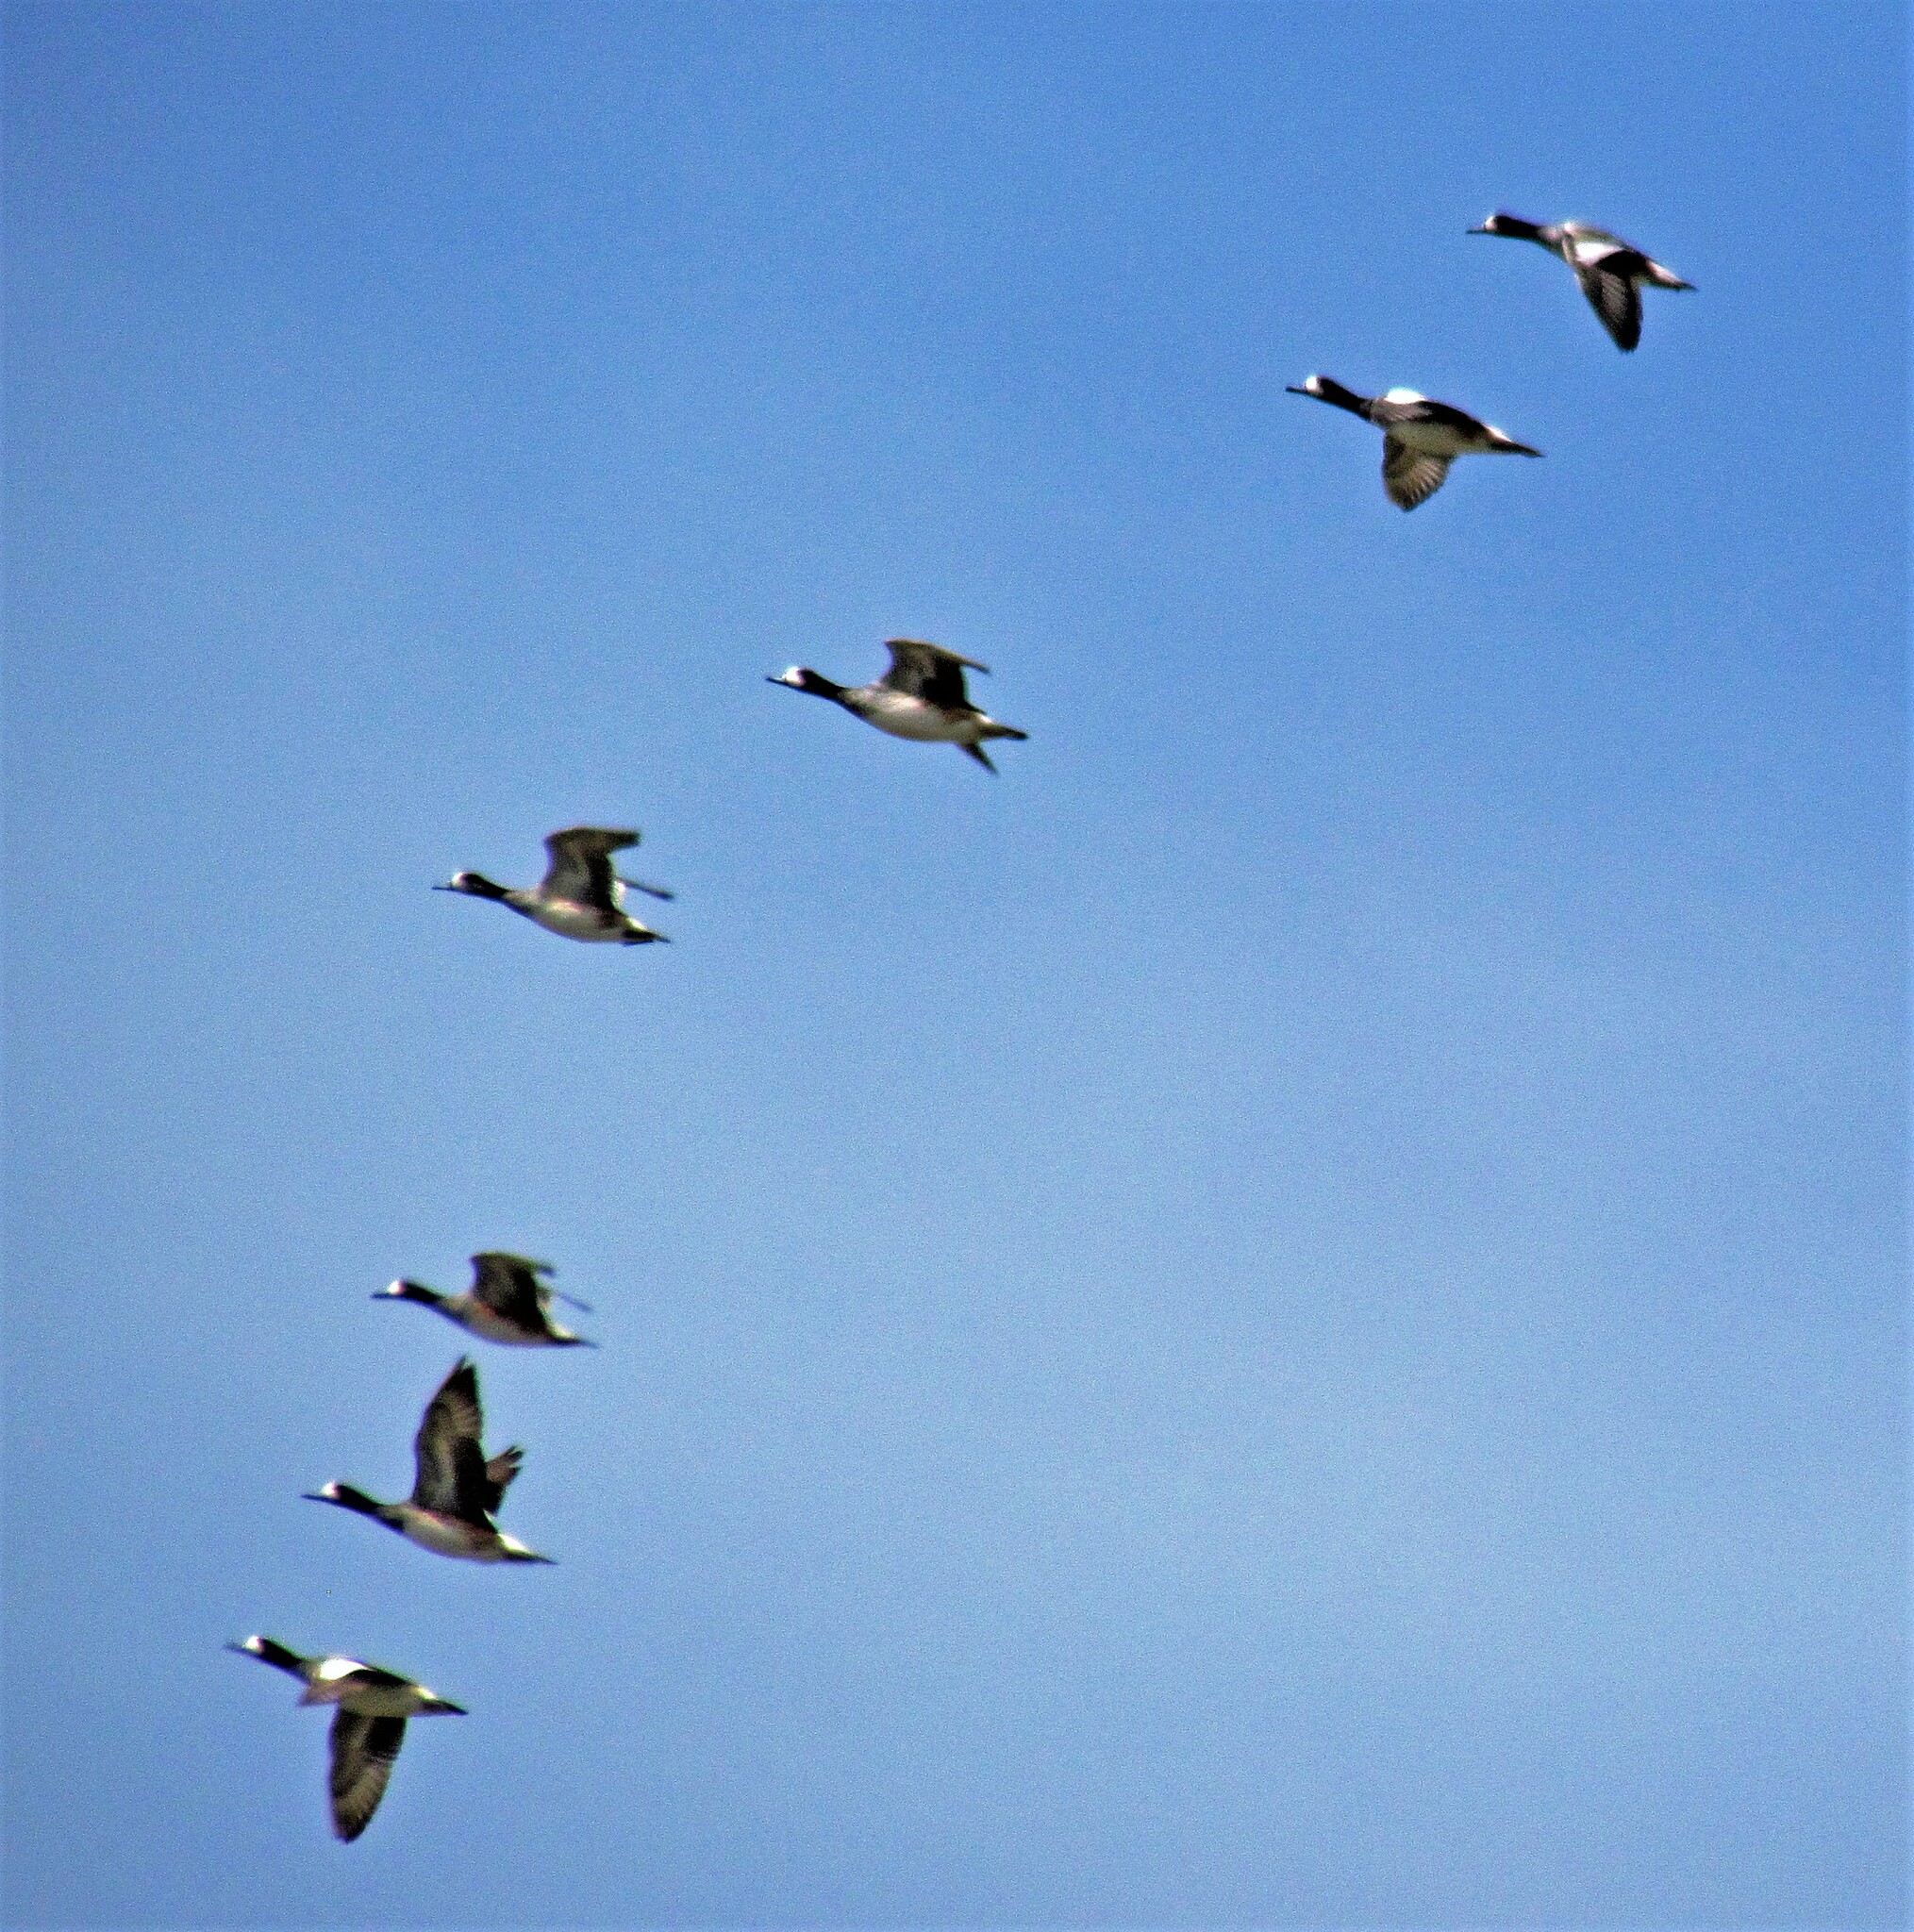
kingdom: Animalia
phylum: Chordata
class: Aves
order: Anseriformes
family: Anatidae
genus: Mareca
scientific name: Mareca sibilatrix
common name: Chiloe wigeon
